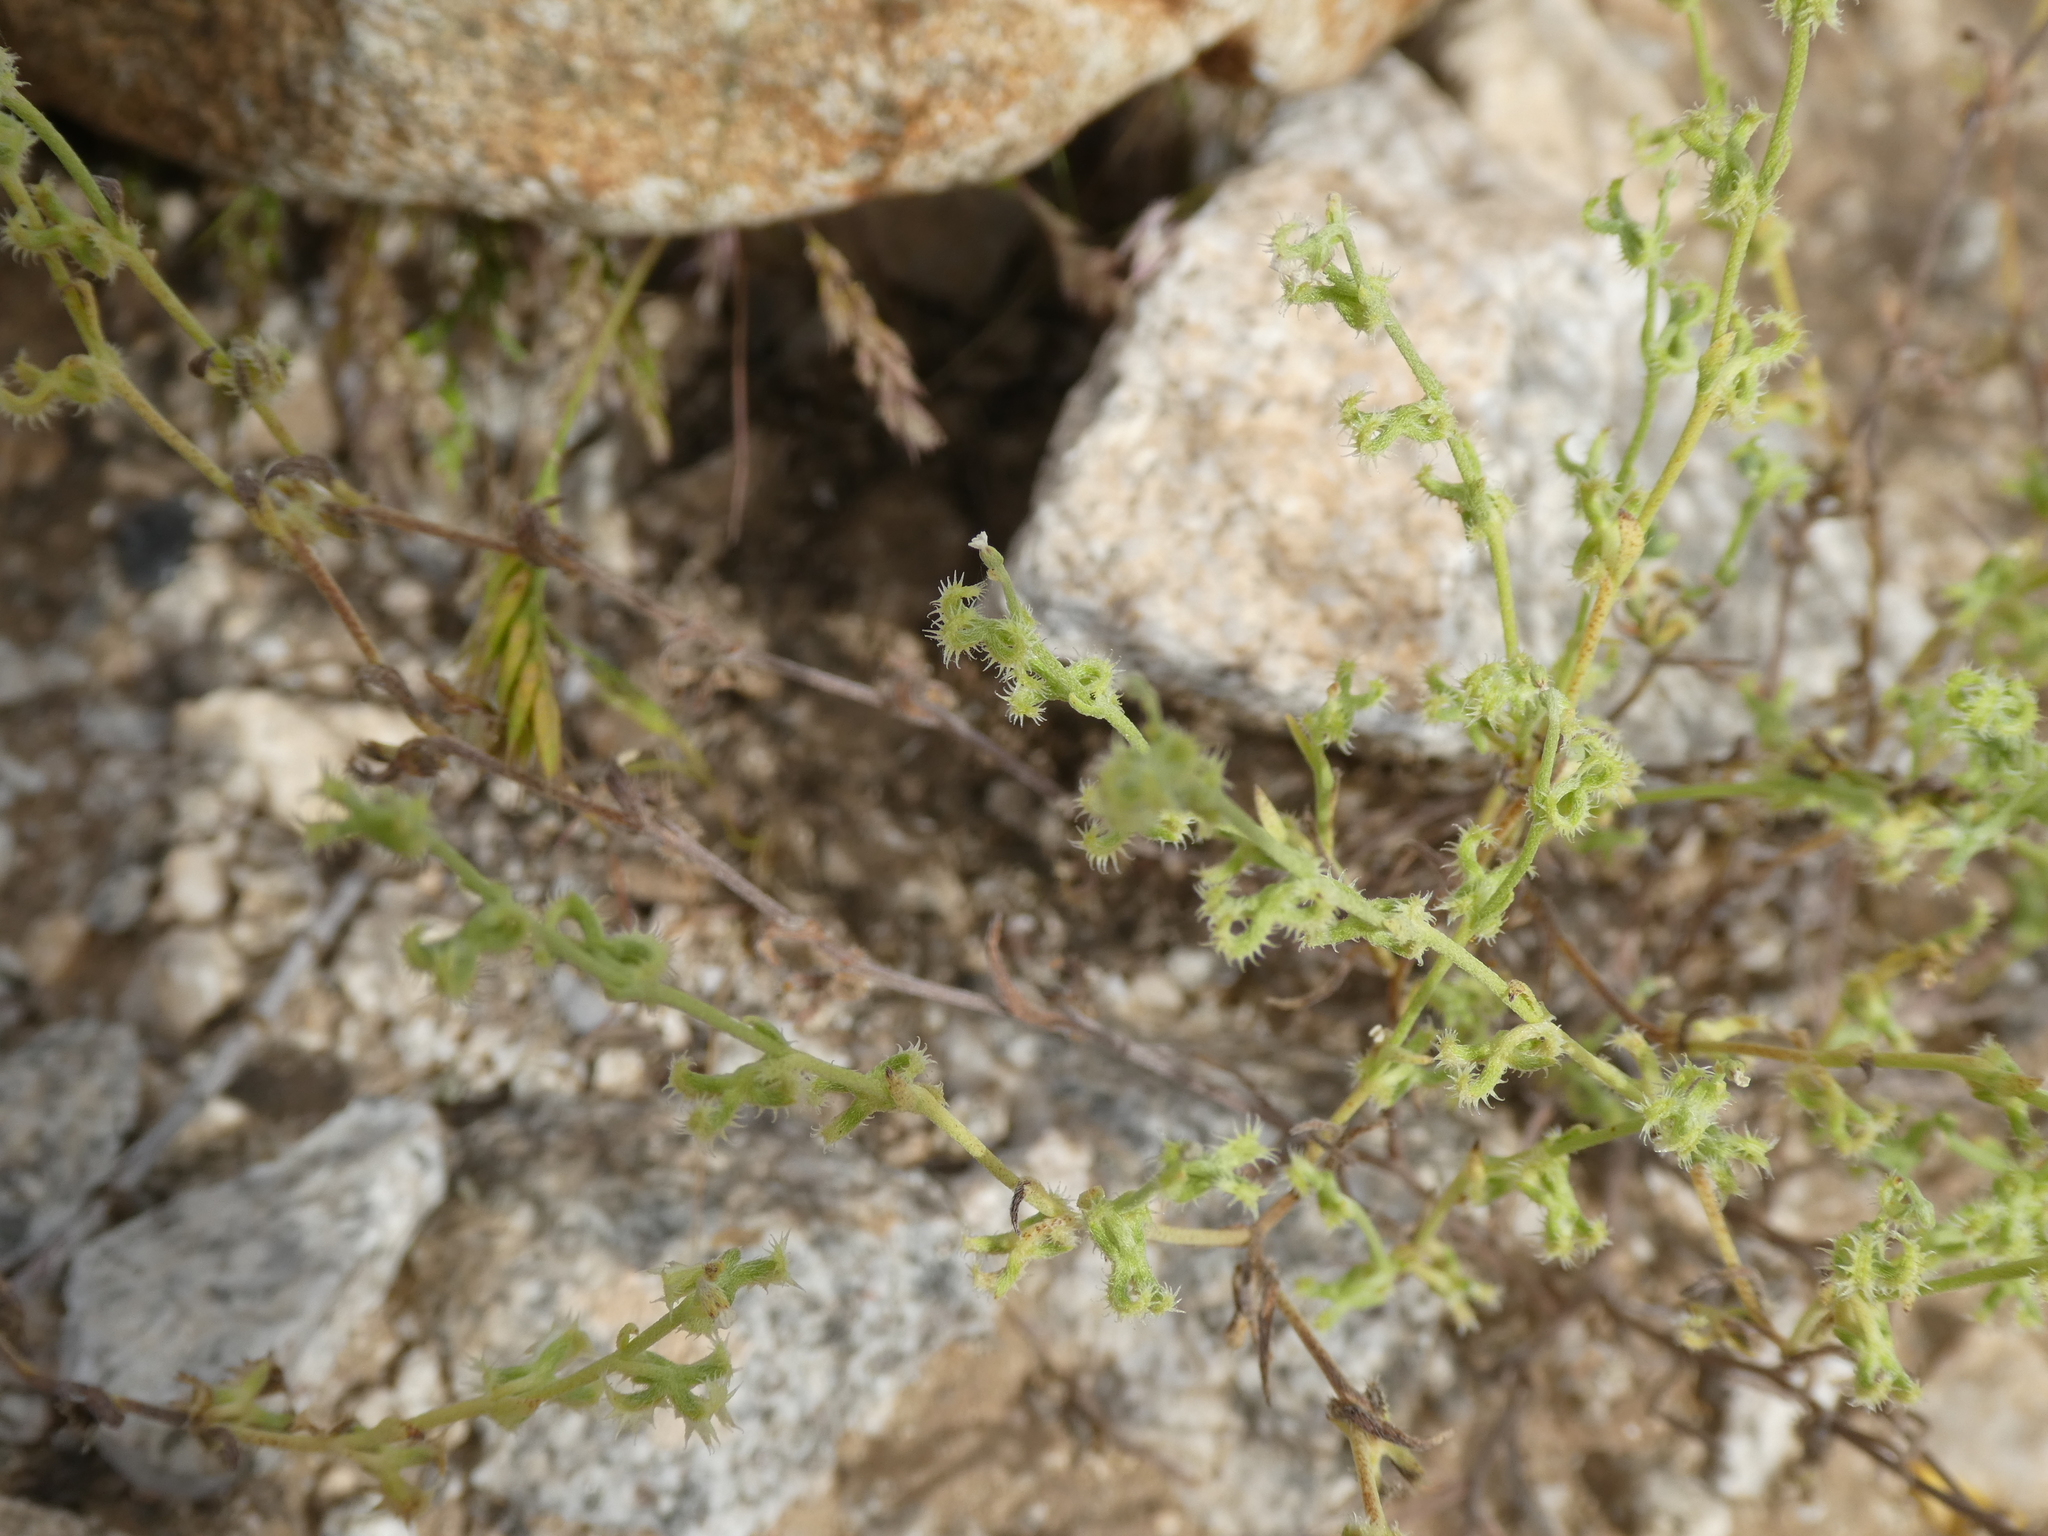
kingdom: Plantae
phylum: Tracheophyta
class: Magnoliopsida
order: Boraginales
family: Boraginaceae
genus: Pectocarya
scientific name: Pectocarya recurvata
